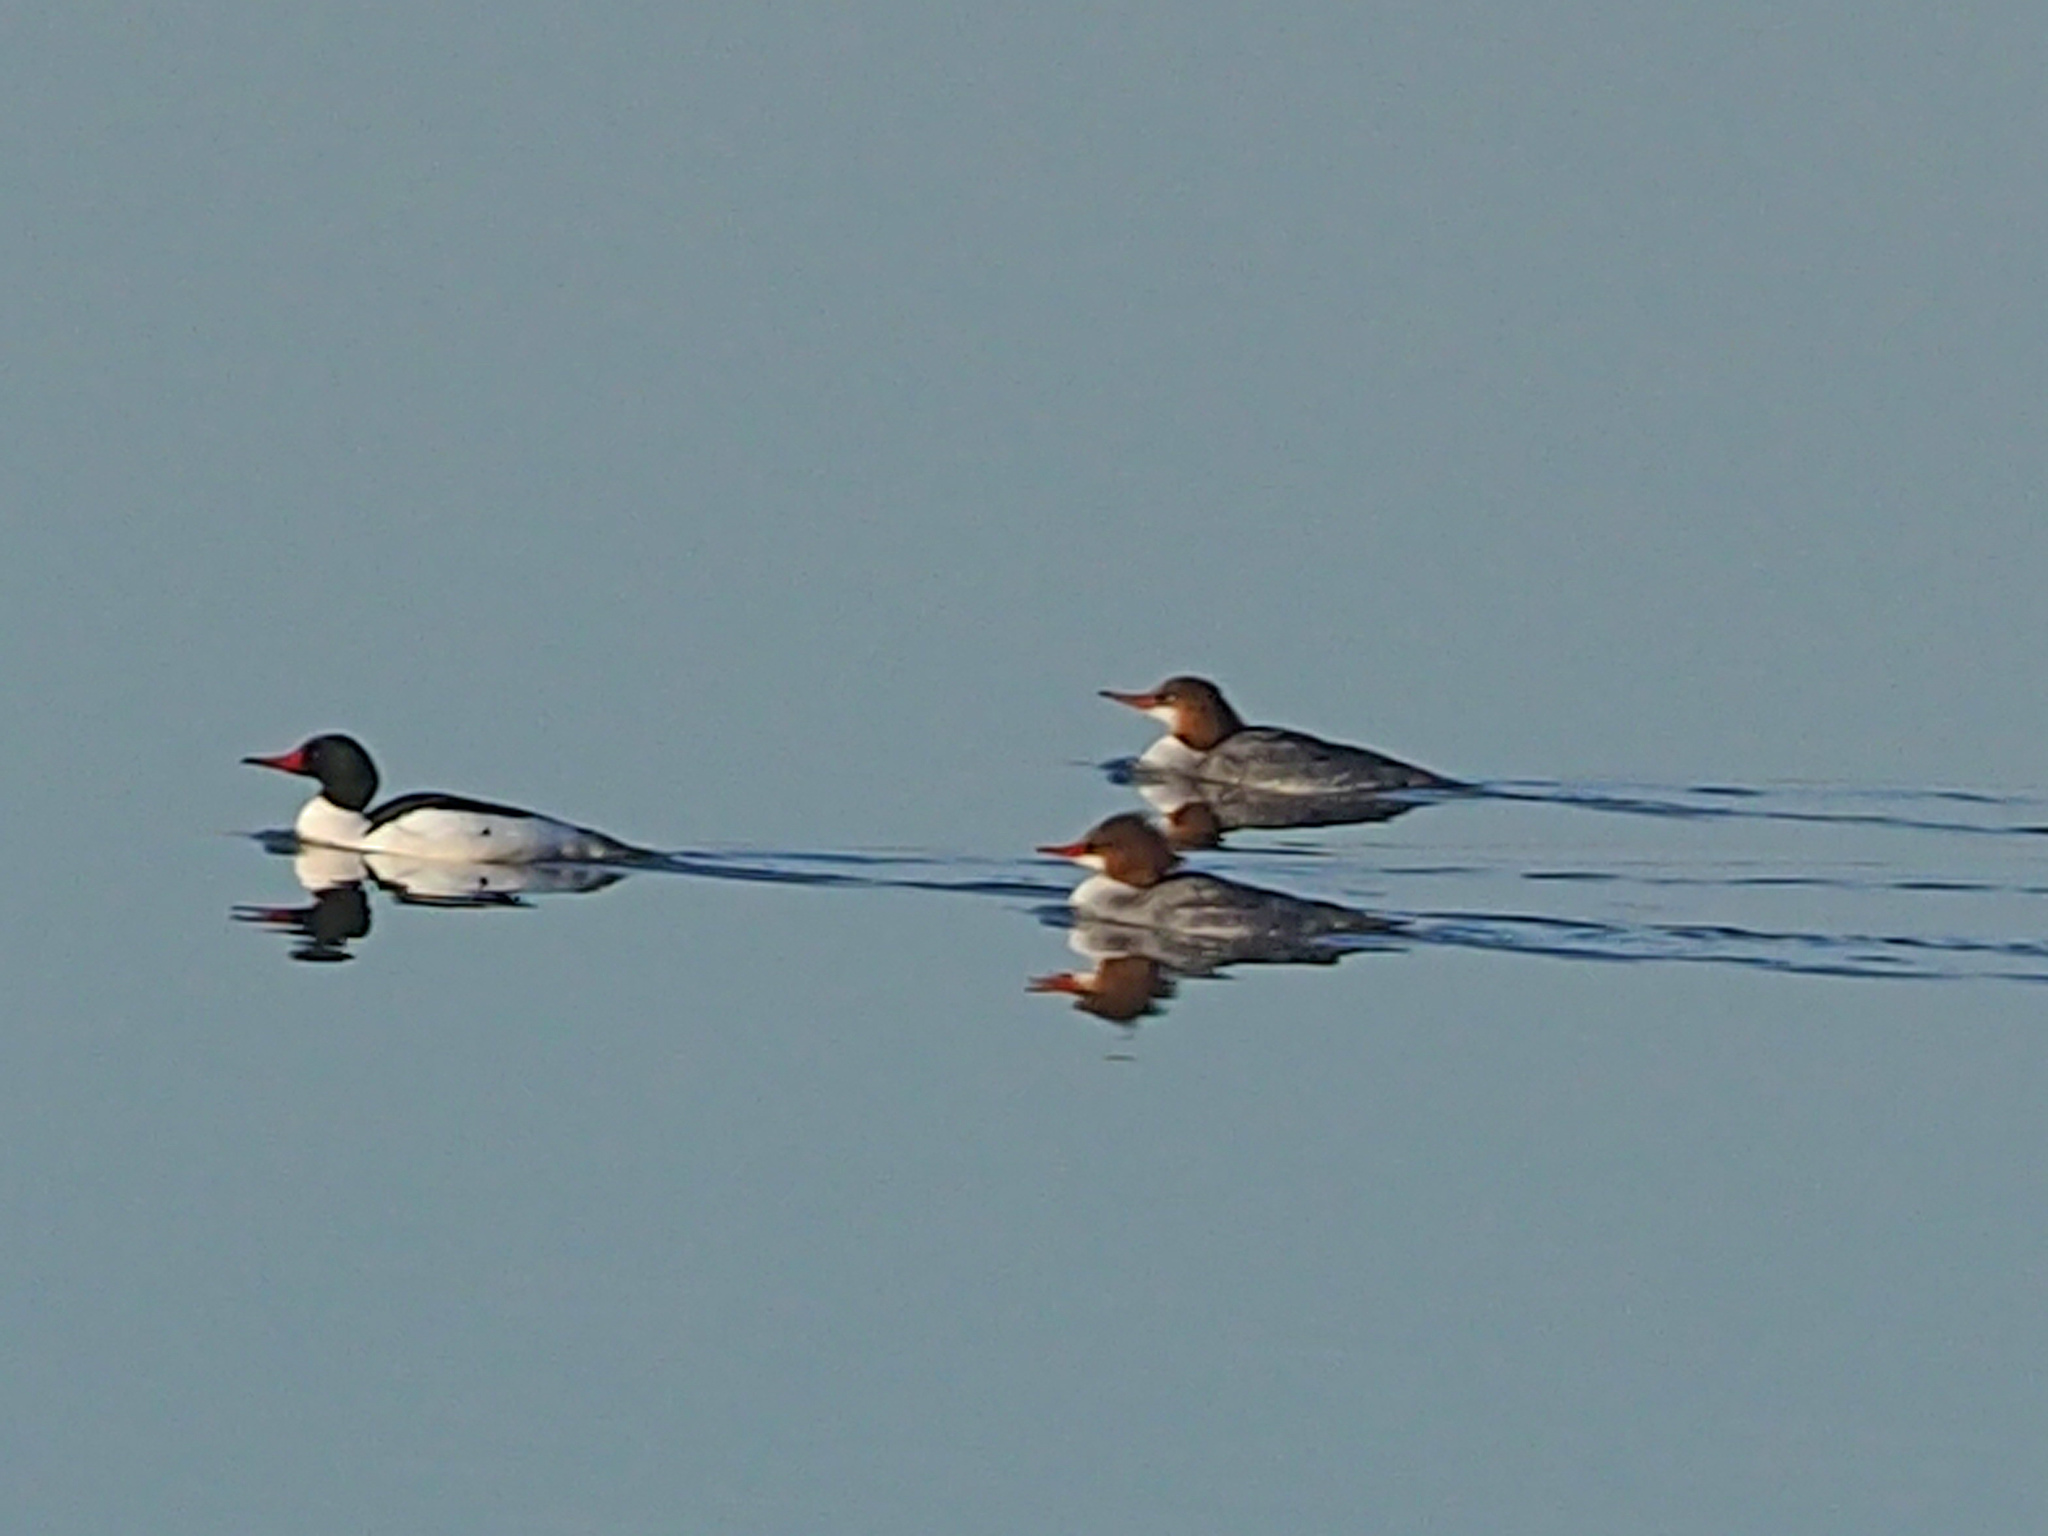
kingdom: Animalia
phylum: Chordata
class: Aves
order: Anseriformes
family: Anatidae
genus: Mergus
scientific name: Mergus merganser
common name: Common merganser
